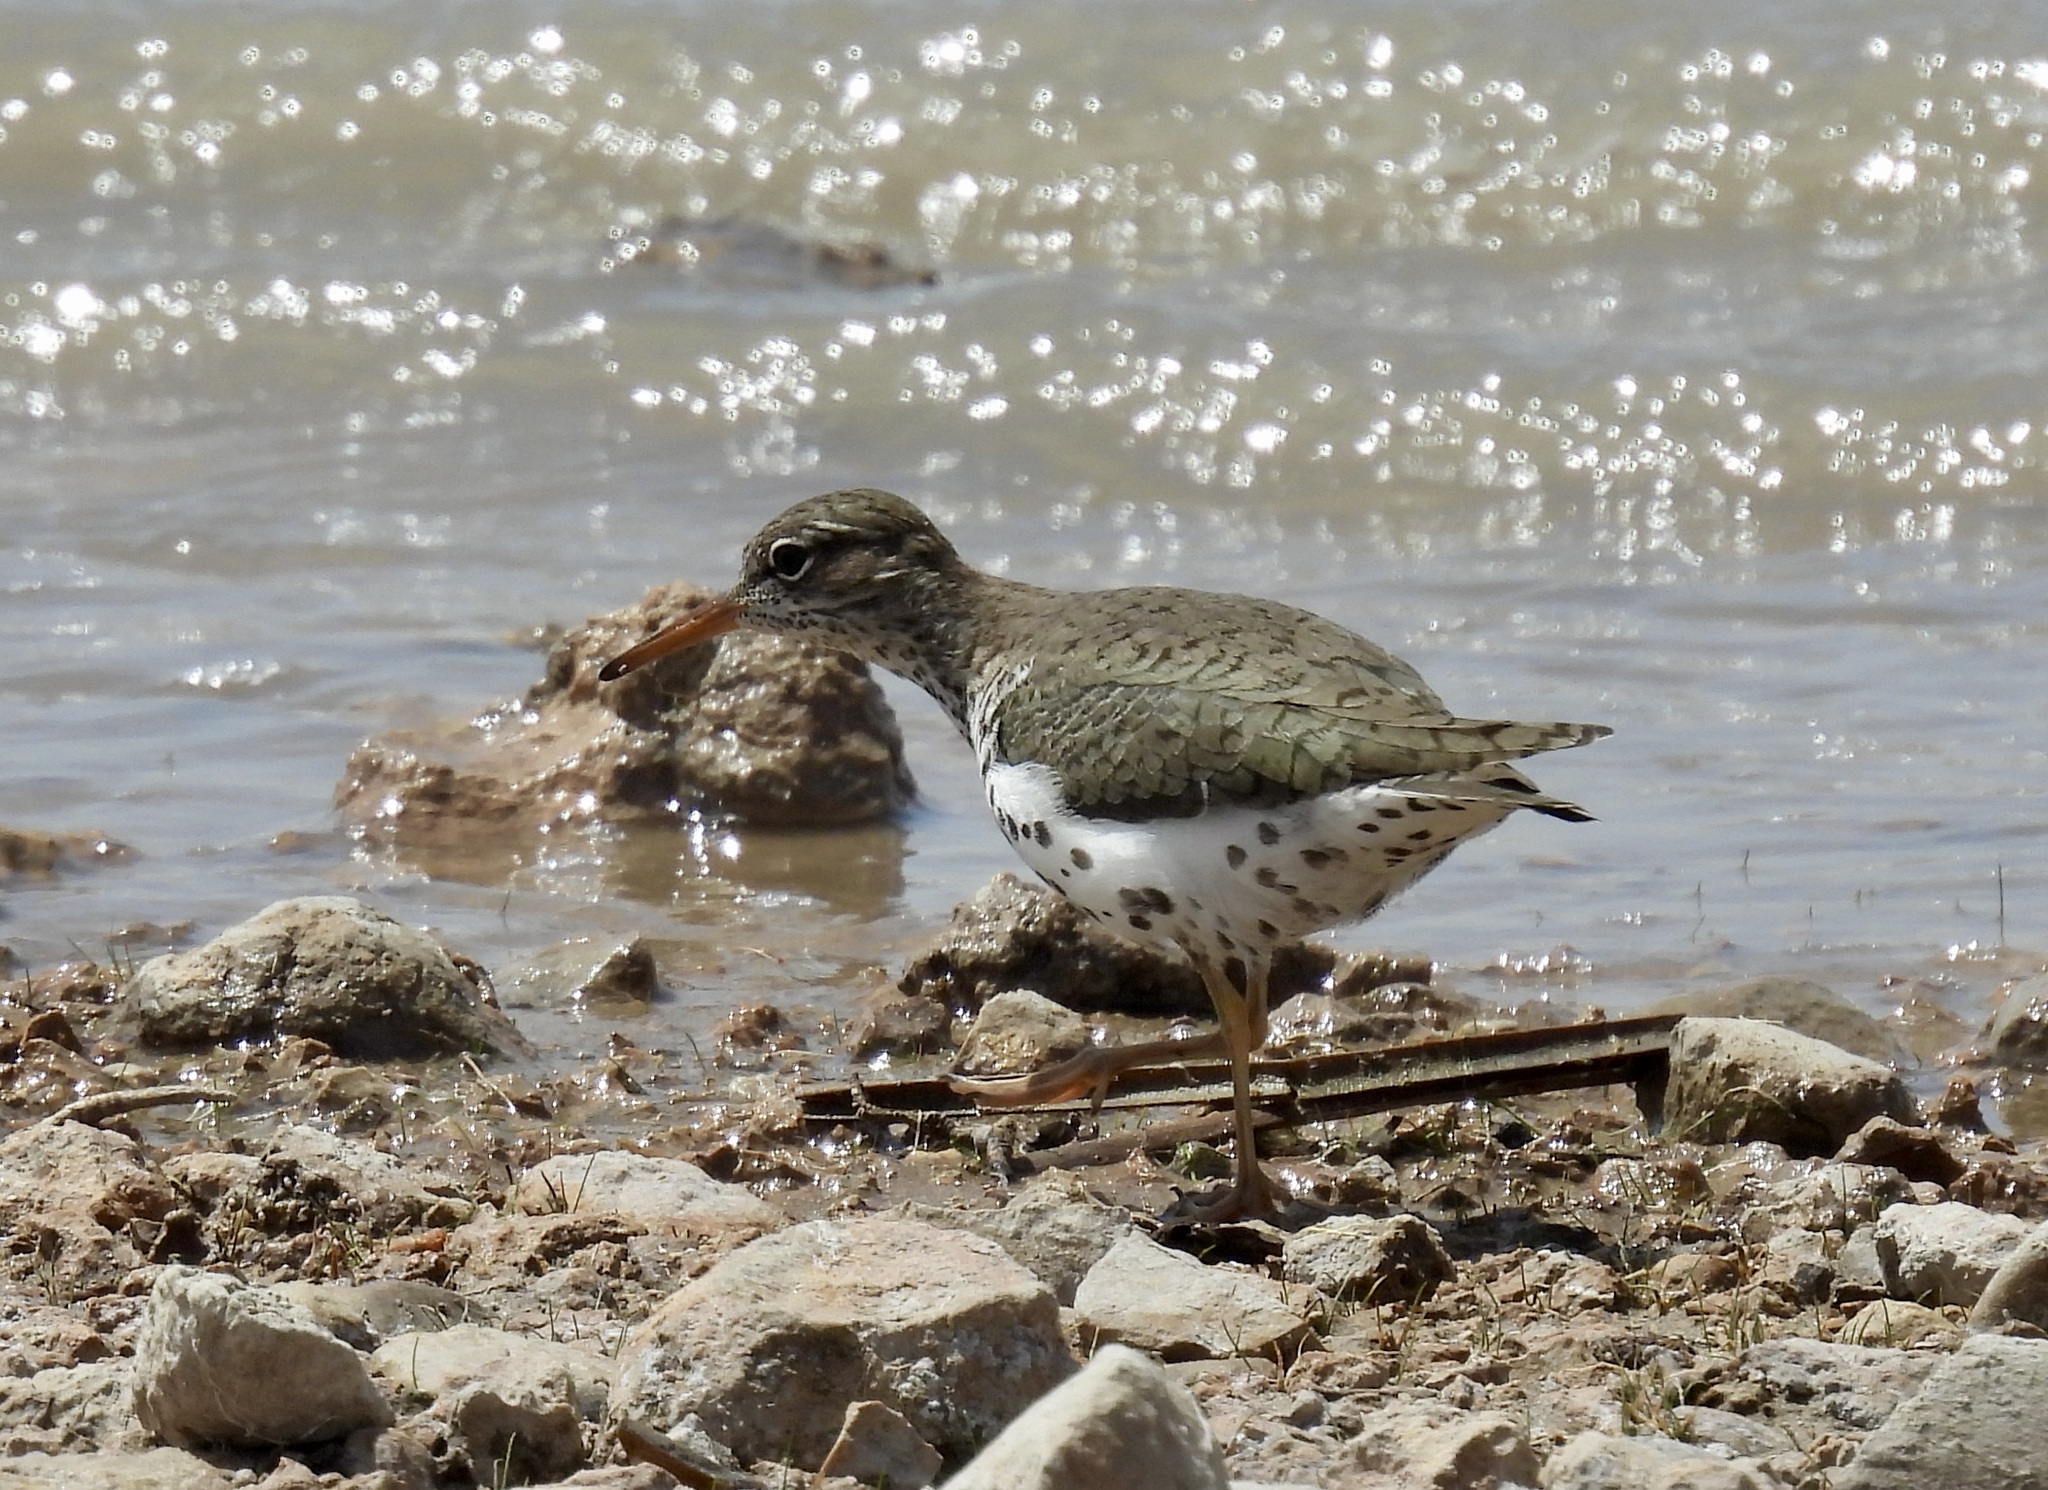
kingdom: Animalia
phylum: Chordata
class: Aves
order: Charadriiformes
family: Scolopacidae
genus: Actitis
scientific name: Actitis macularius
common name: Spotted sandpiper
